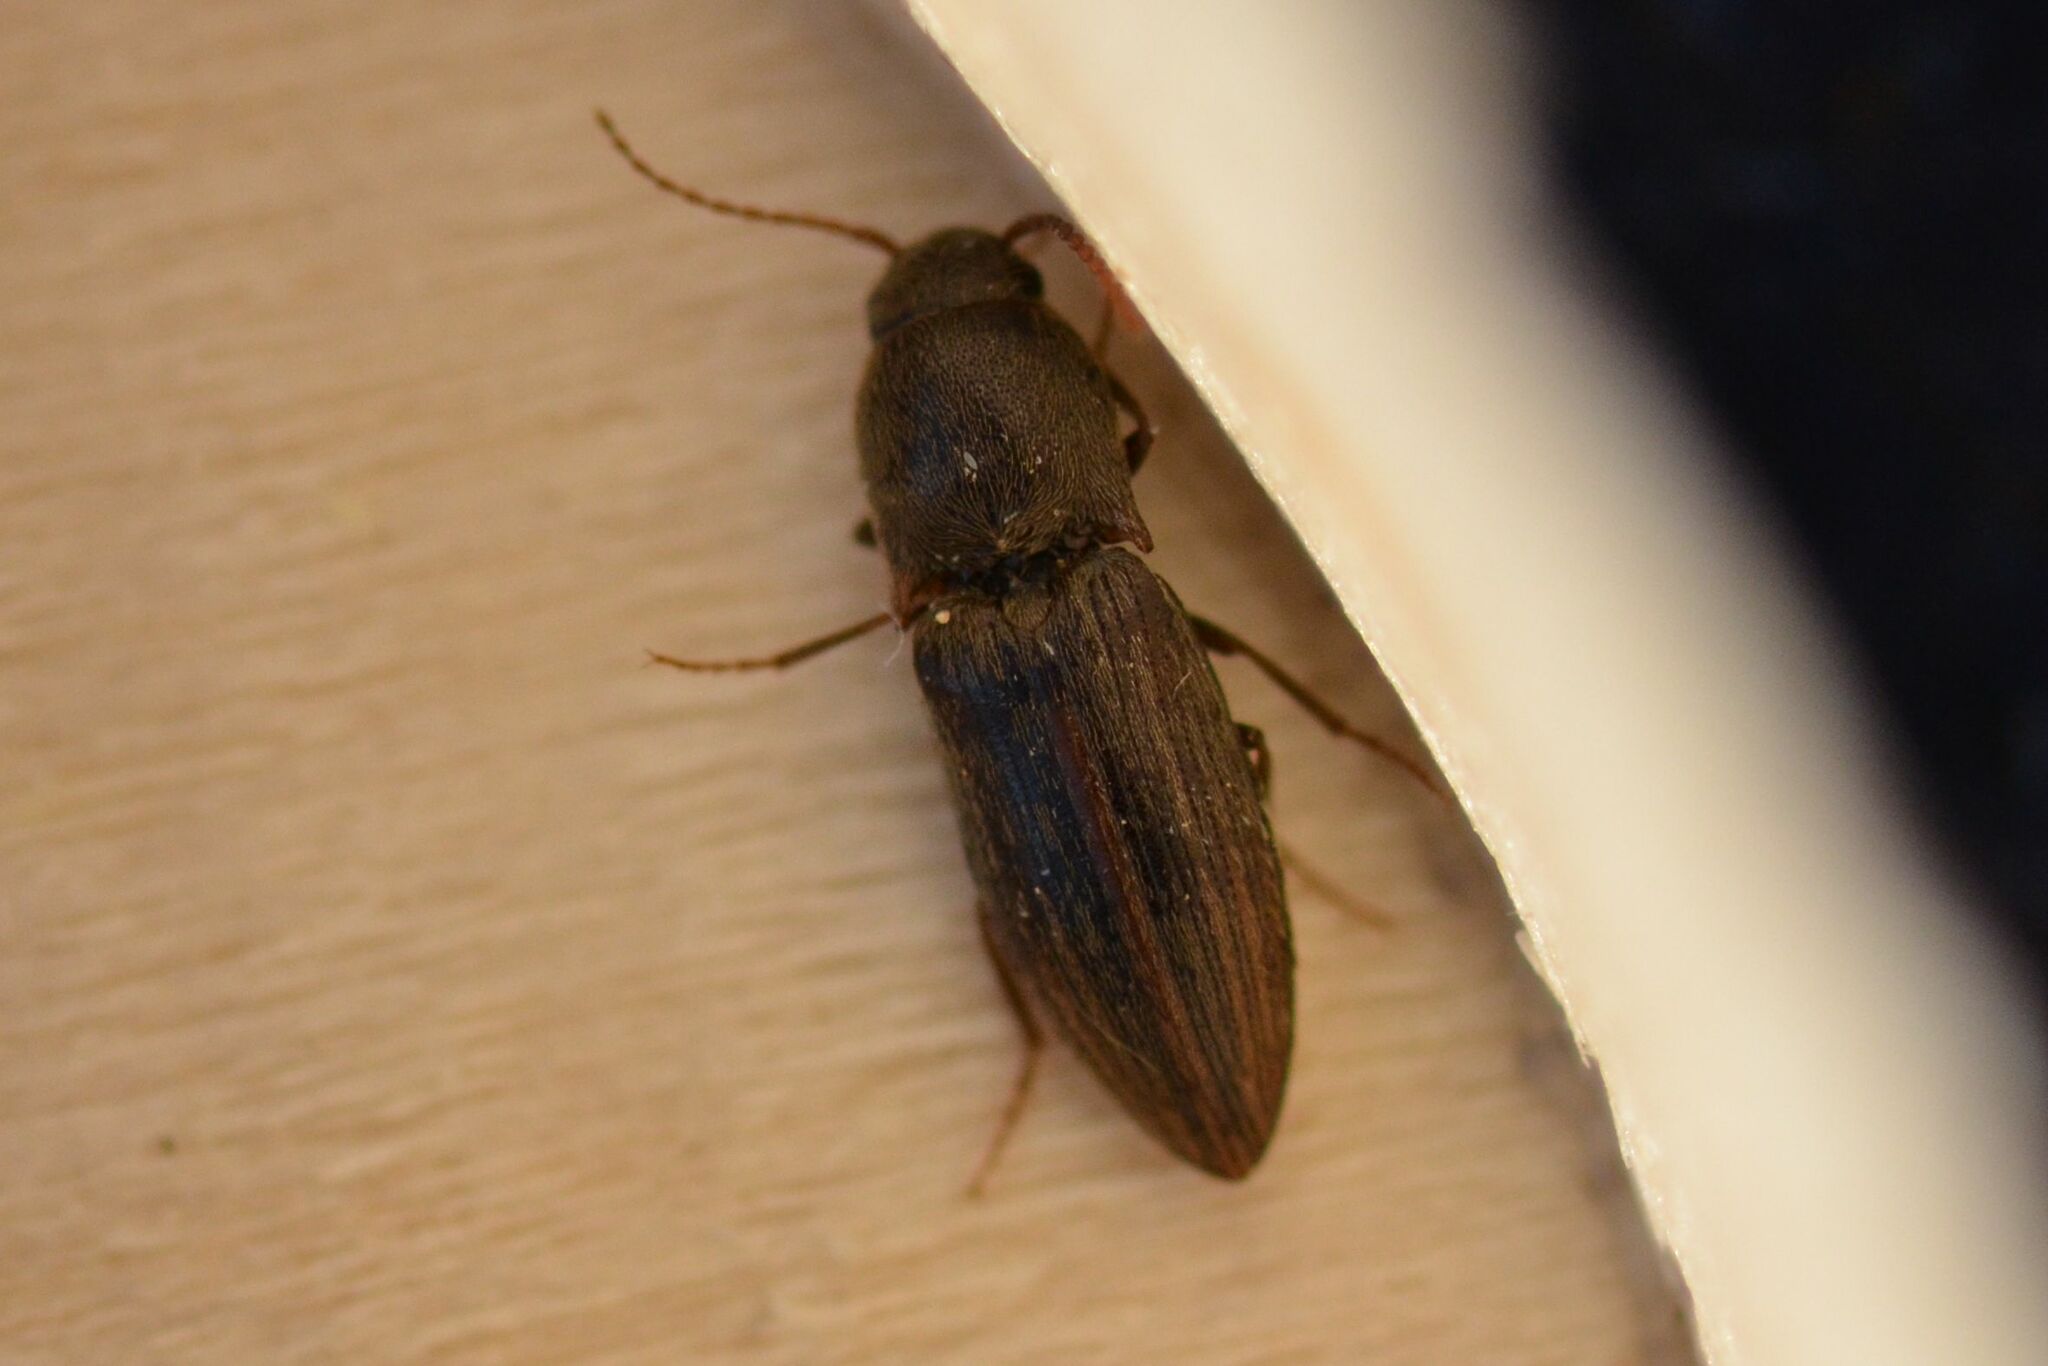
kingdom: Animalia
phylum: Arthropoda
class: Insecta
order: Coleoptera
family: Elateridae
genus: Agriotes
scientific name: Agriotes lineatus
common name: Lined click beetle
